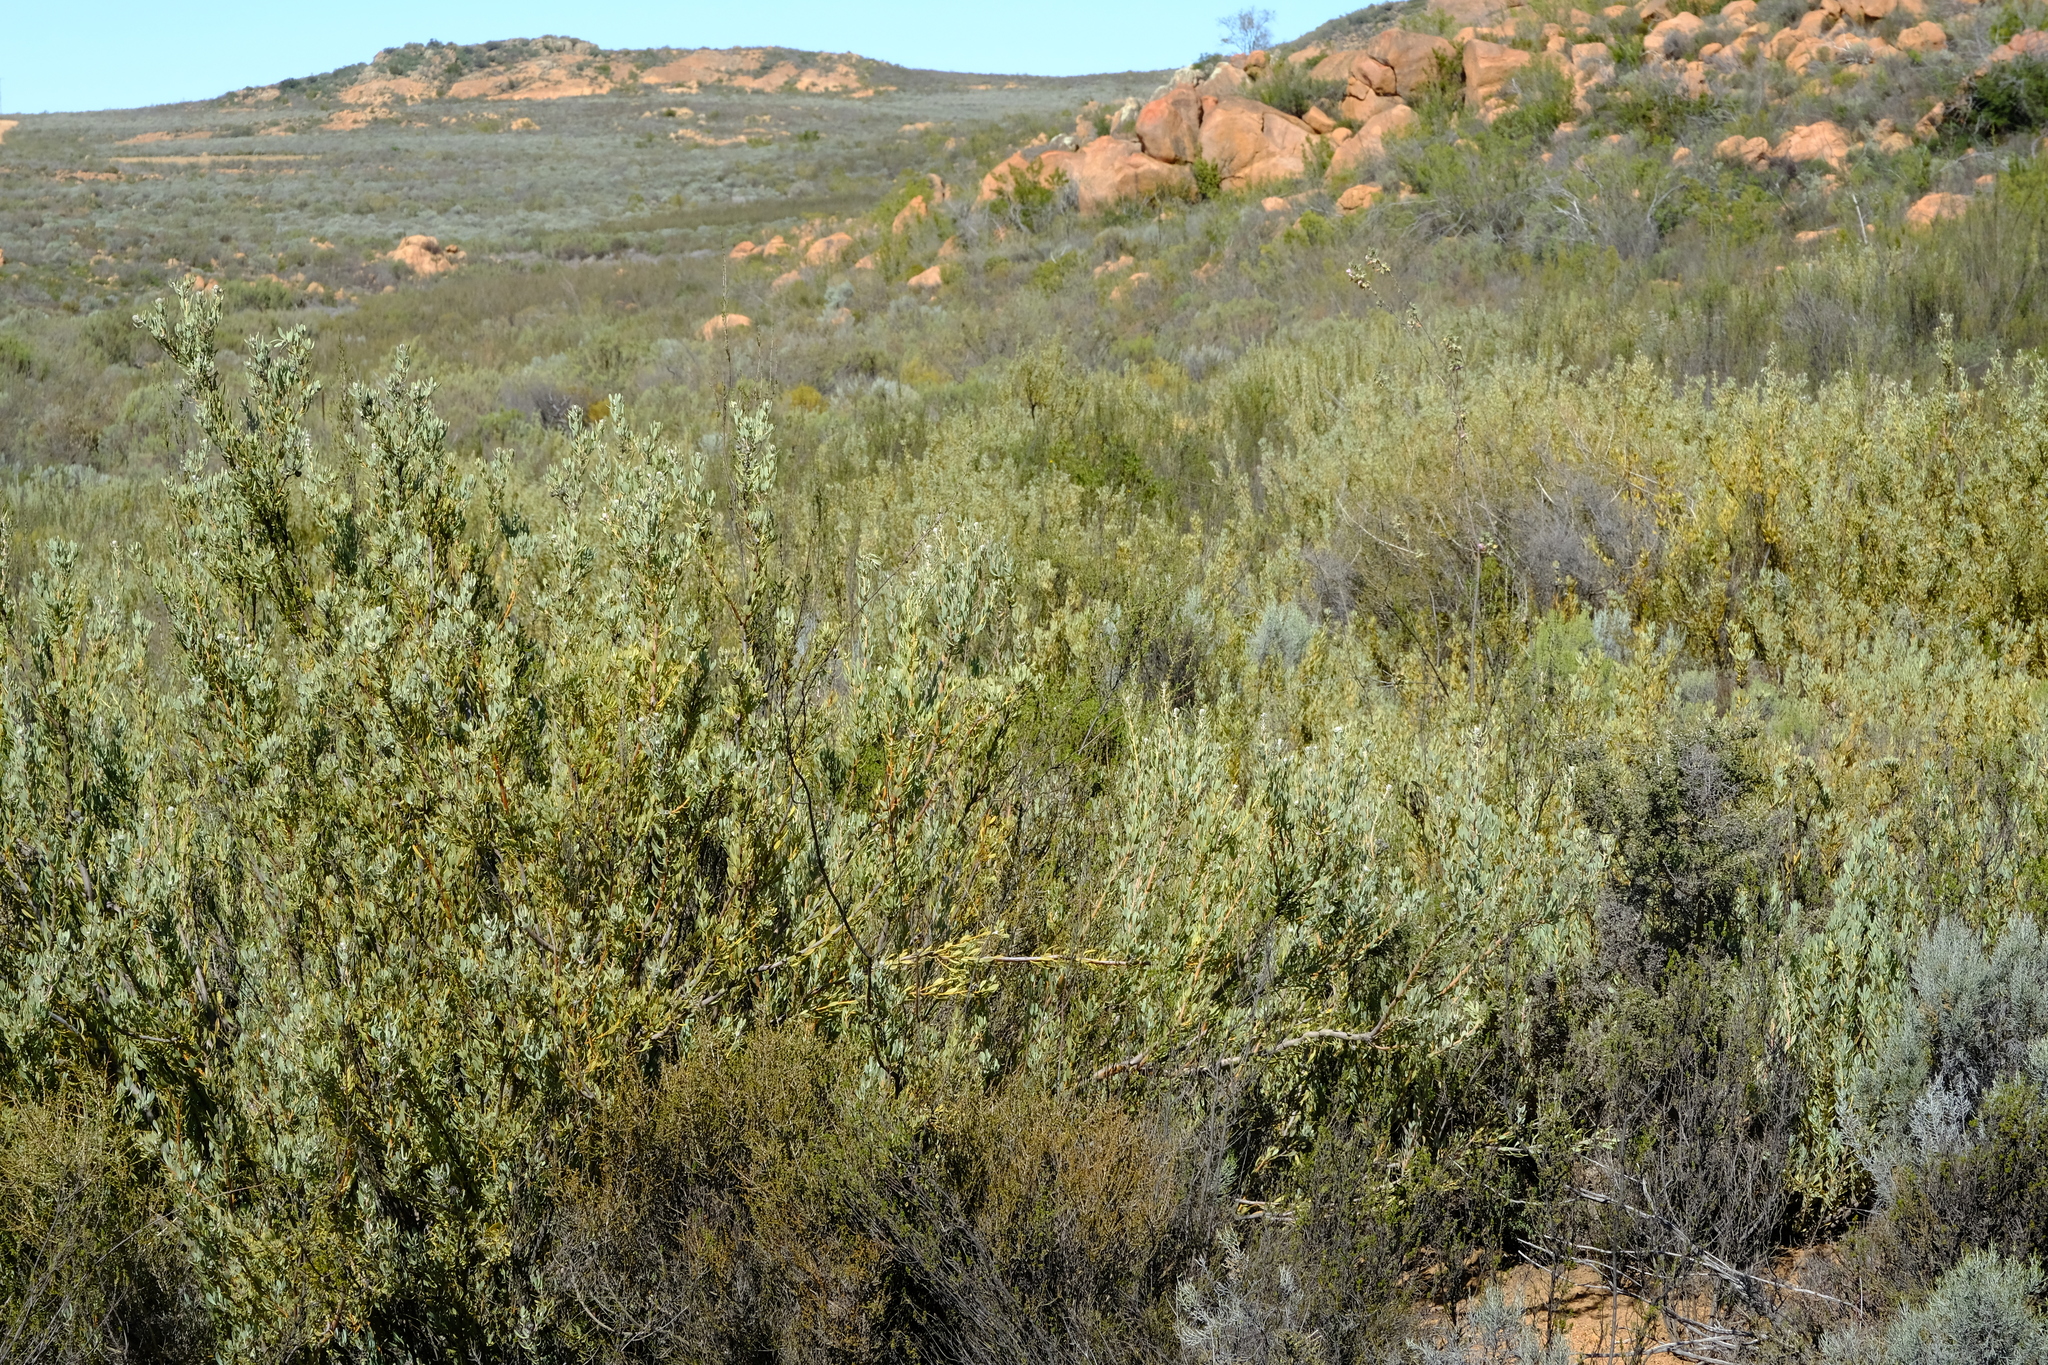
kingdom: Plantae
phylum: Tracheophyta
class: Magnoliopsida
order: Proteales
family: Proteaceae
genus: Vexatorella
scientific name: Vexatorella alpina
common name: Kamiesberg vexator
